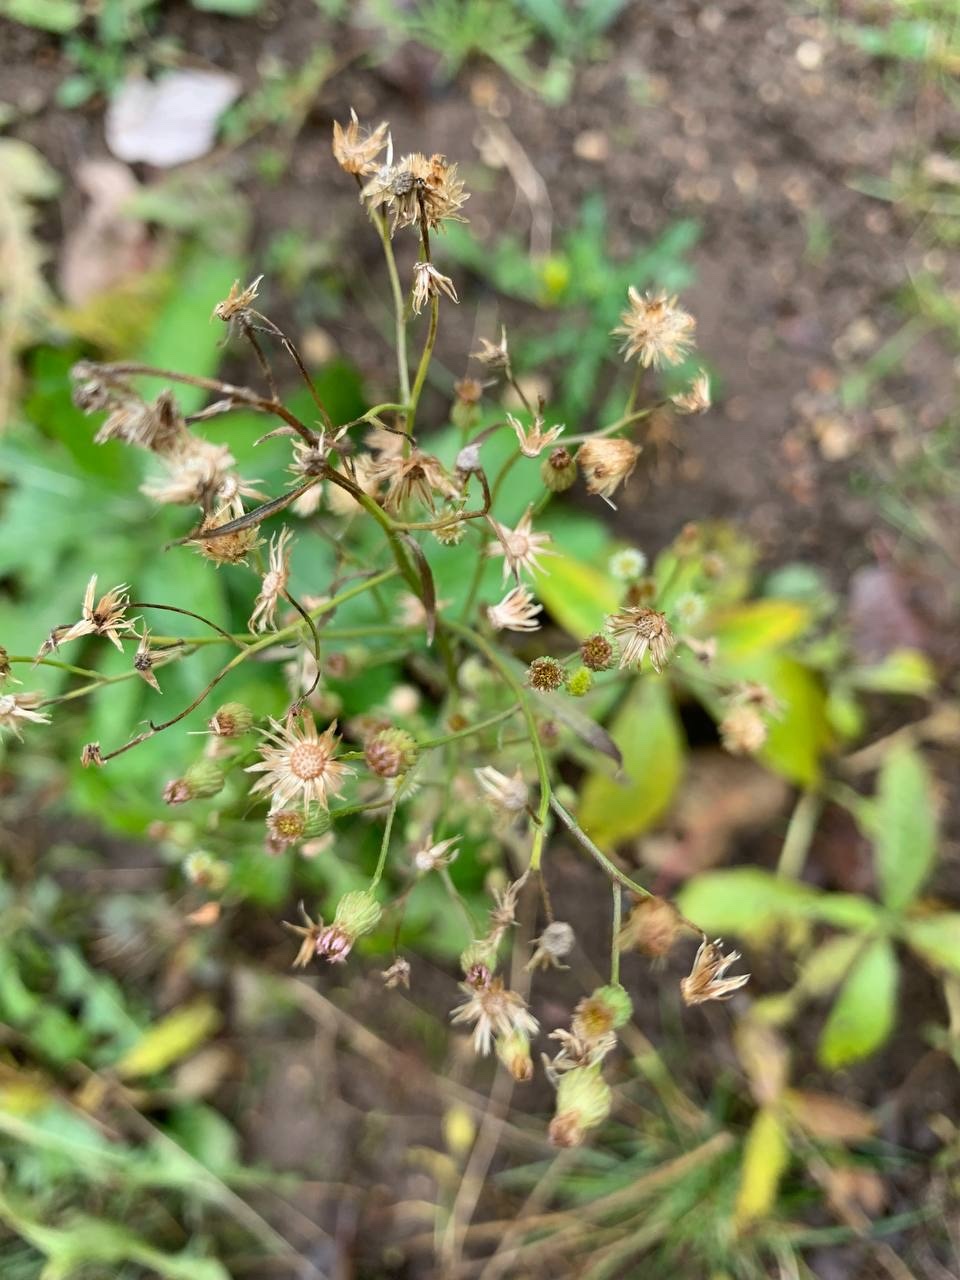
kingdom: Plantae
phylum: Tracheophyta
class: Magnoliopsida
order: Asterales
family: Asteraceae
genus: Erigeron
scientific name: Erigeron canadensis
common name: Canadian fleabane
